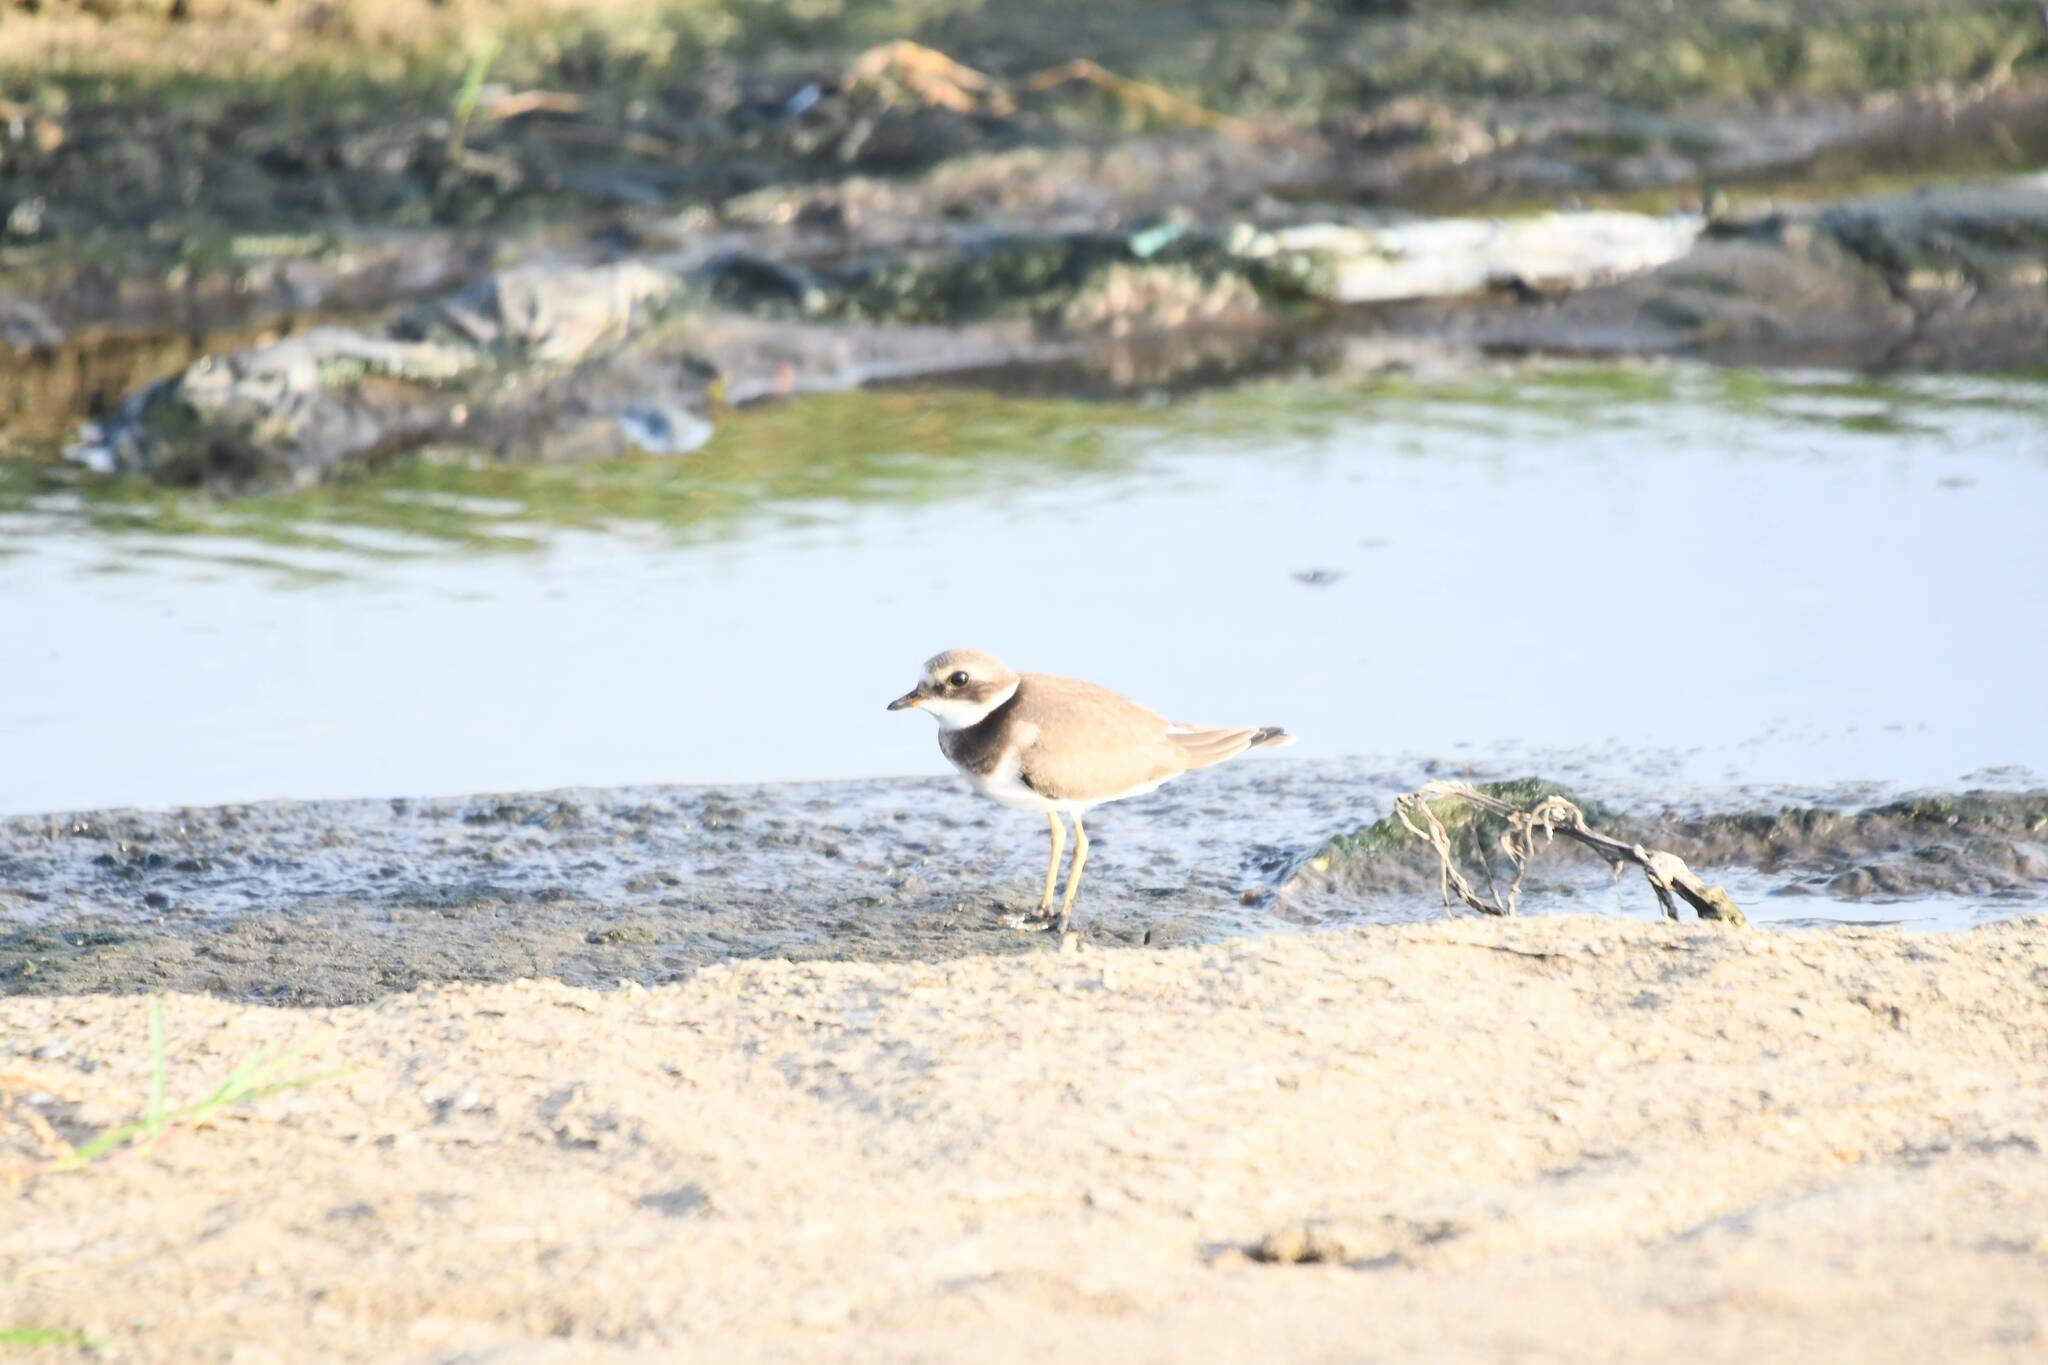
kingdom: Animalia
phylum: Chordata
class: Aves
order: Charadriiformes
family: Charadriidae
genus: Charadrius
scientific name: Charadrius dubius
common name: Little ringed plover
